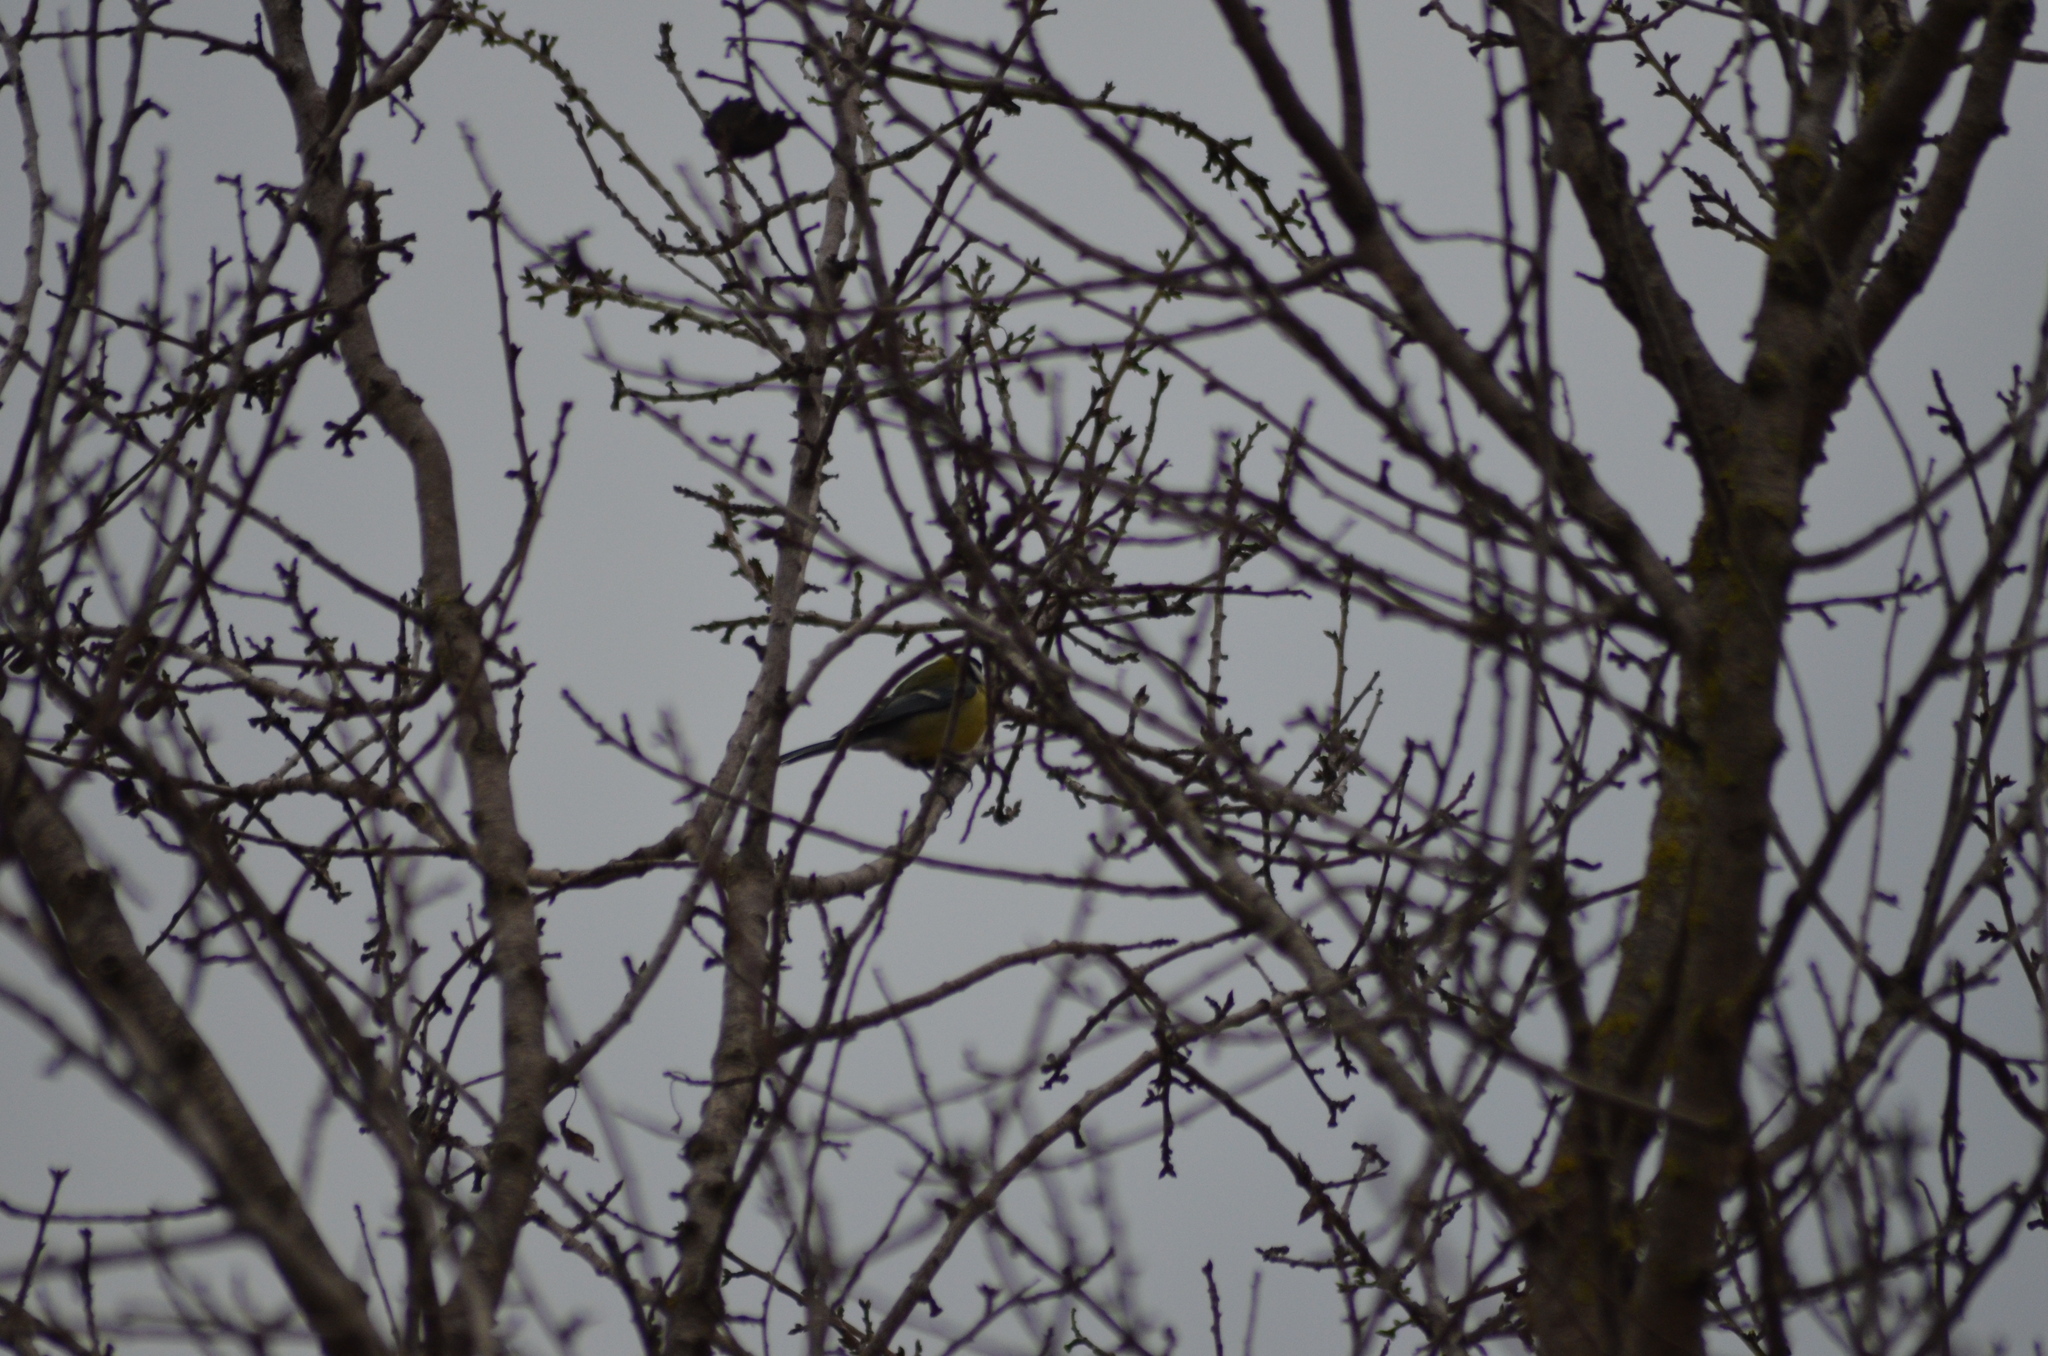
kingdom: Animalia
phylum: Chordata
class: Aves
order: Passeriformes
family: Paridae
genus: Parus
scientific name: Parus major
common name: Great tit
